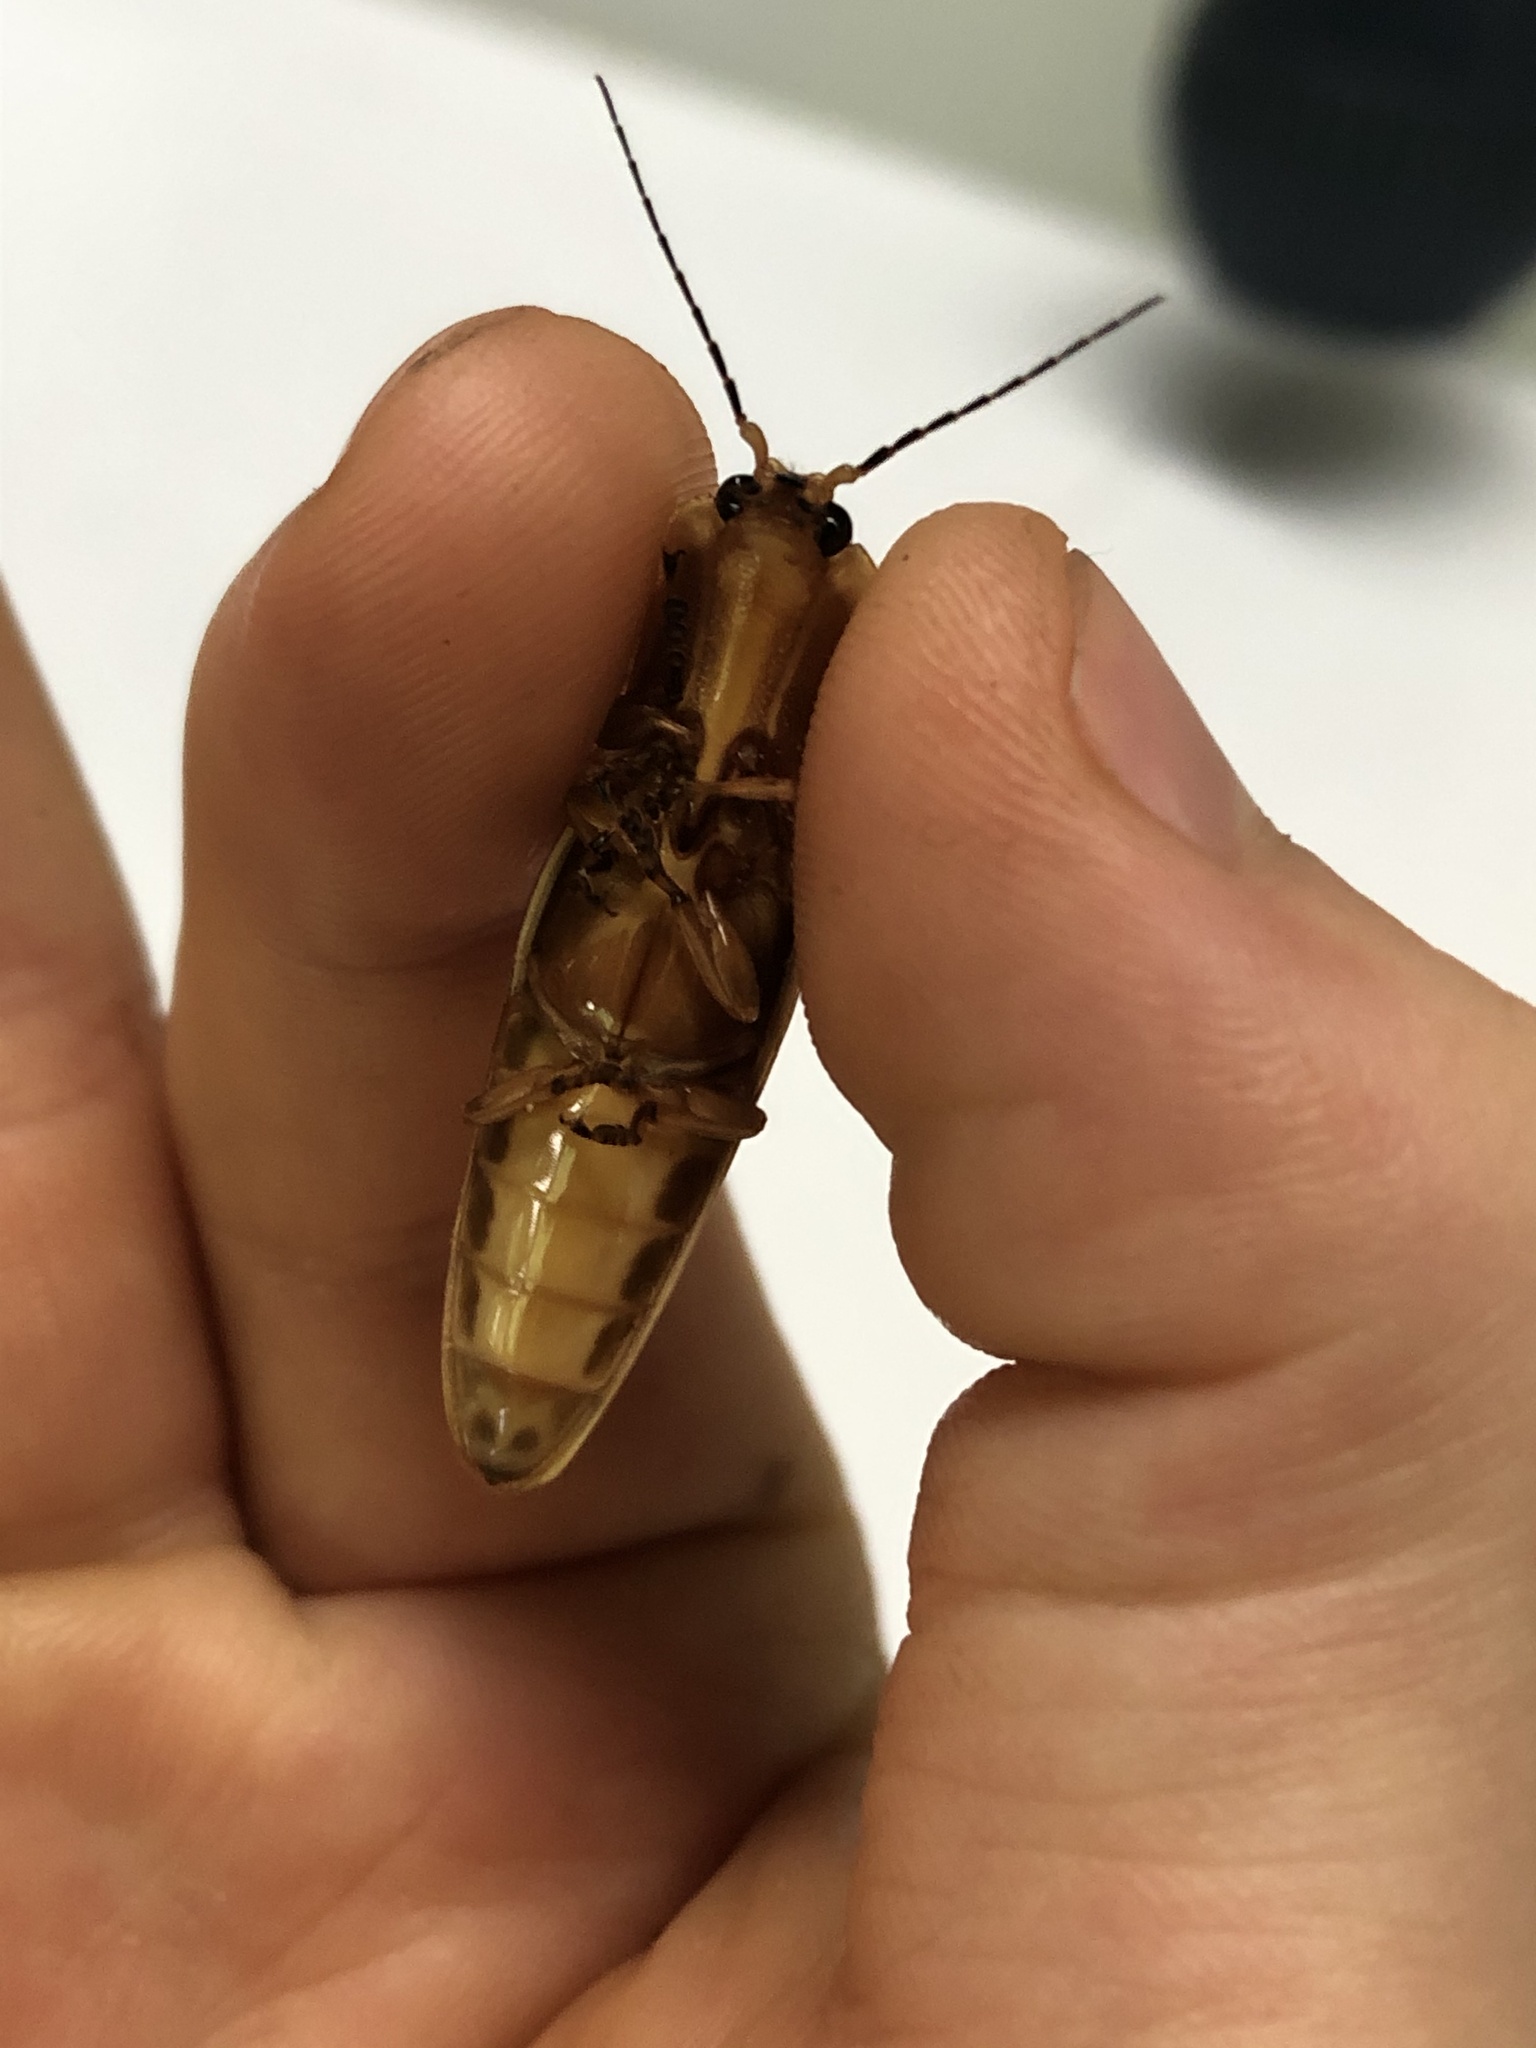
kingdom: Animalia
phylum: Arthropoda
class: Insecta
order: Coleoptera
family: Elateridae
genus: Semiotus
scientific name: Semiotus ligneus
